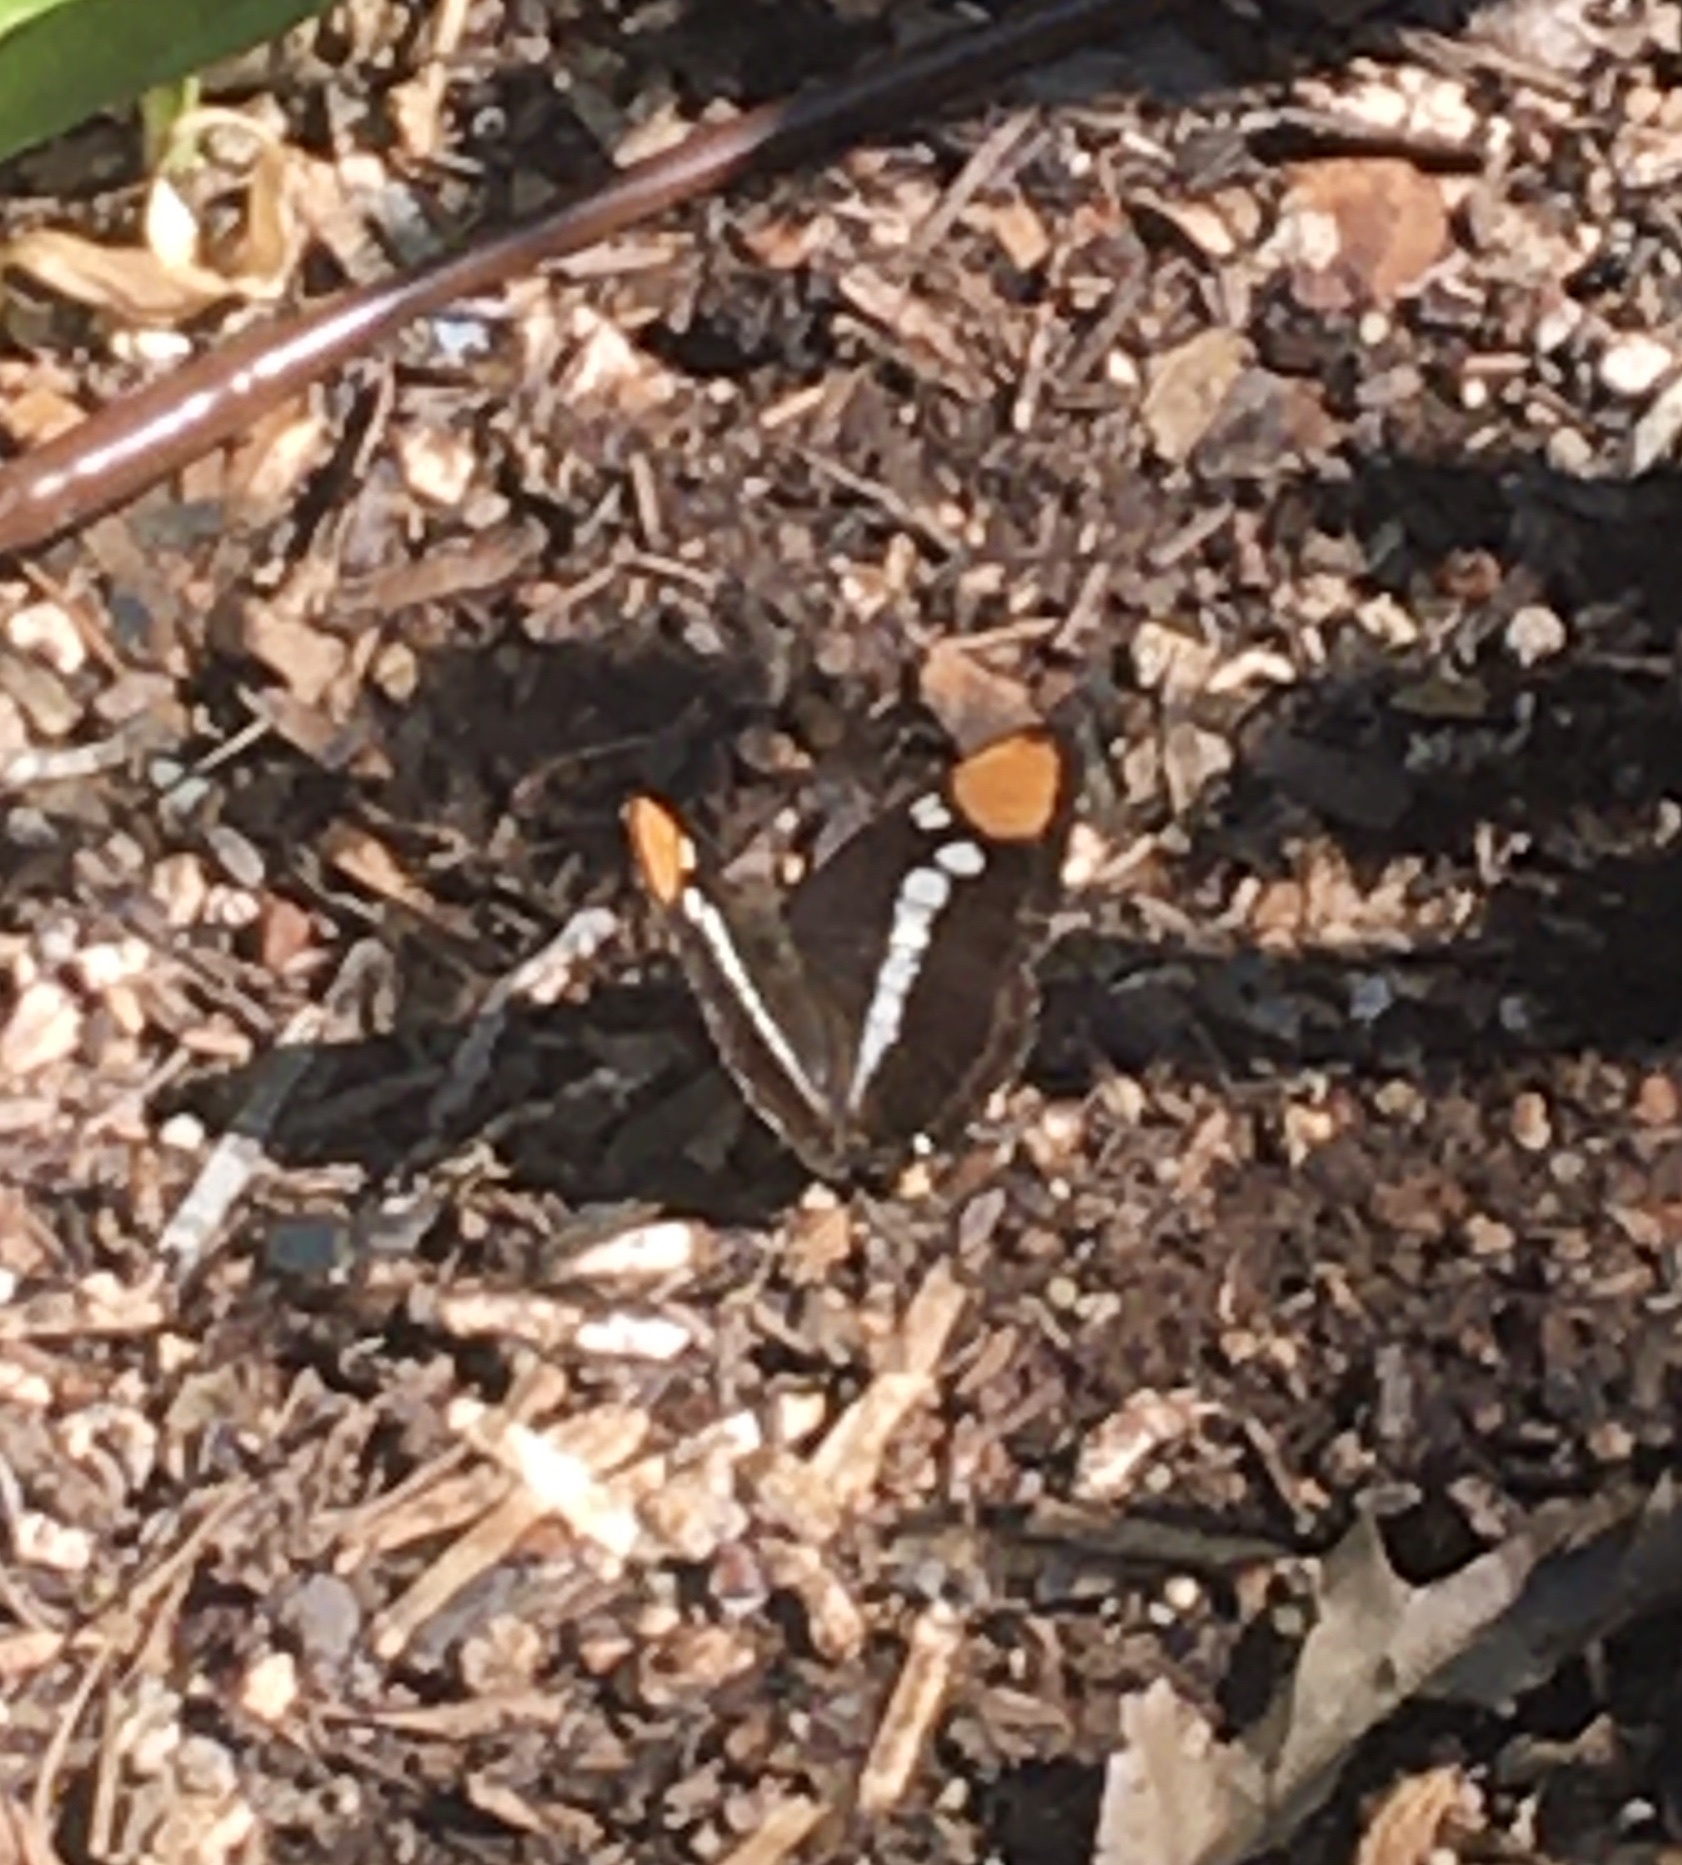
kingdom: Animalia
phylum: Arthropoda
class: Insecta
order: Lepidoptera
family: Nymphalidae
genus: Limenitis
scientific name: Limenitis bredowii
